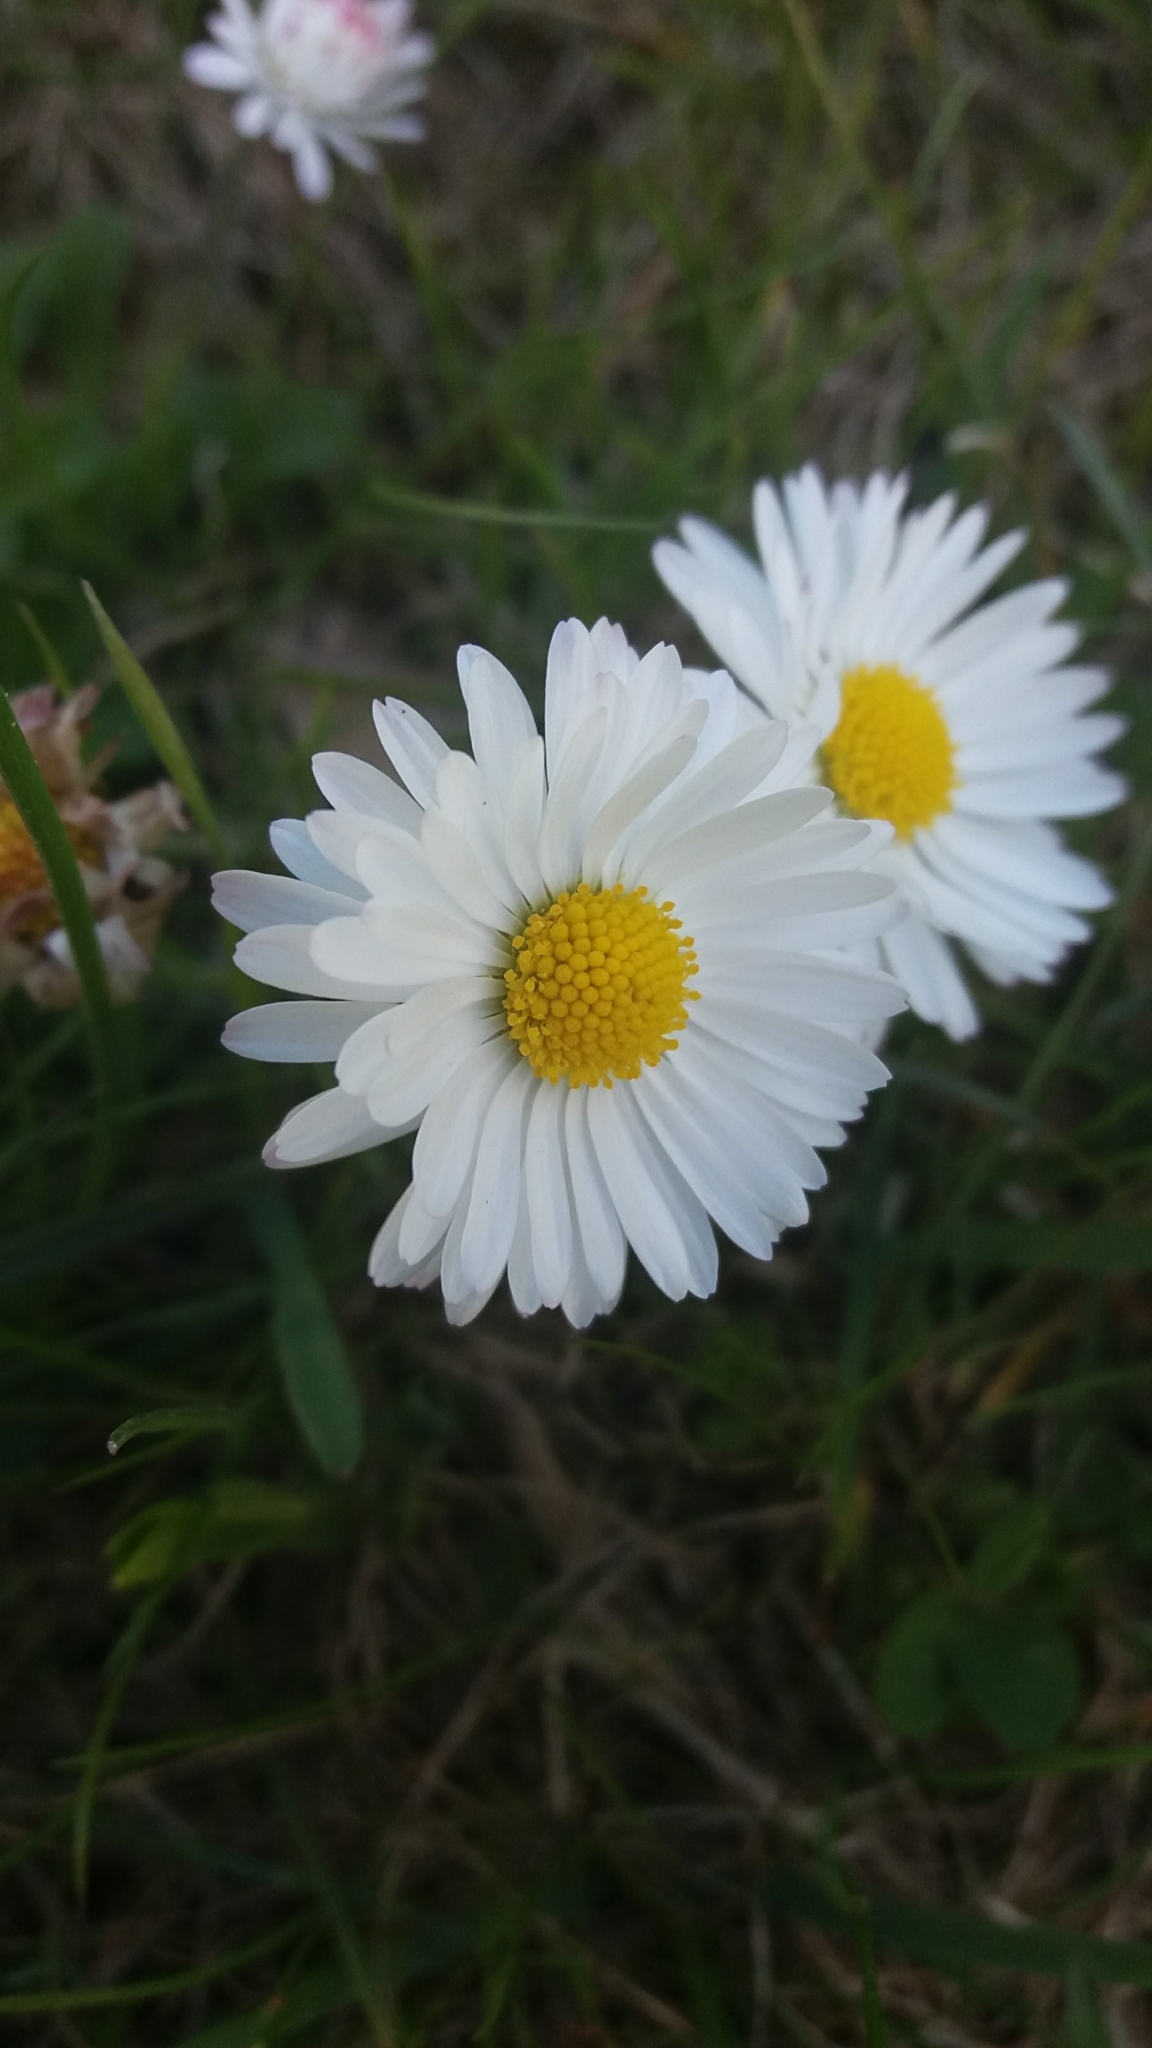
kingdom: Plantae
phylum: Tracheophyta
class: Magnoliopsida
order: Asterales
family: Asteraceae
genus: Bellis
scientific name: Bellis perennis
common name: Lawndaisy
